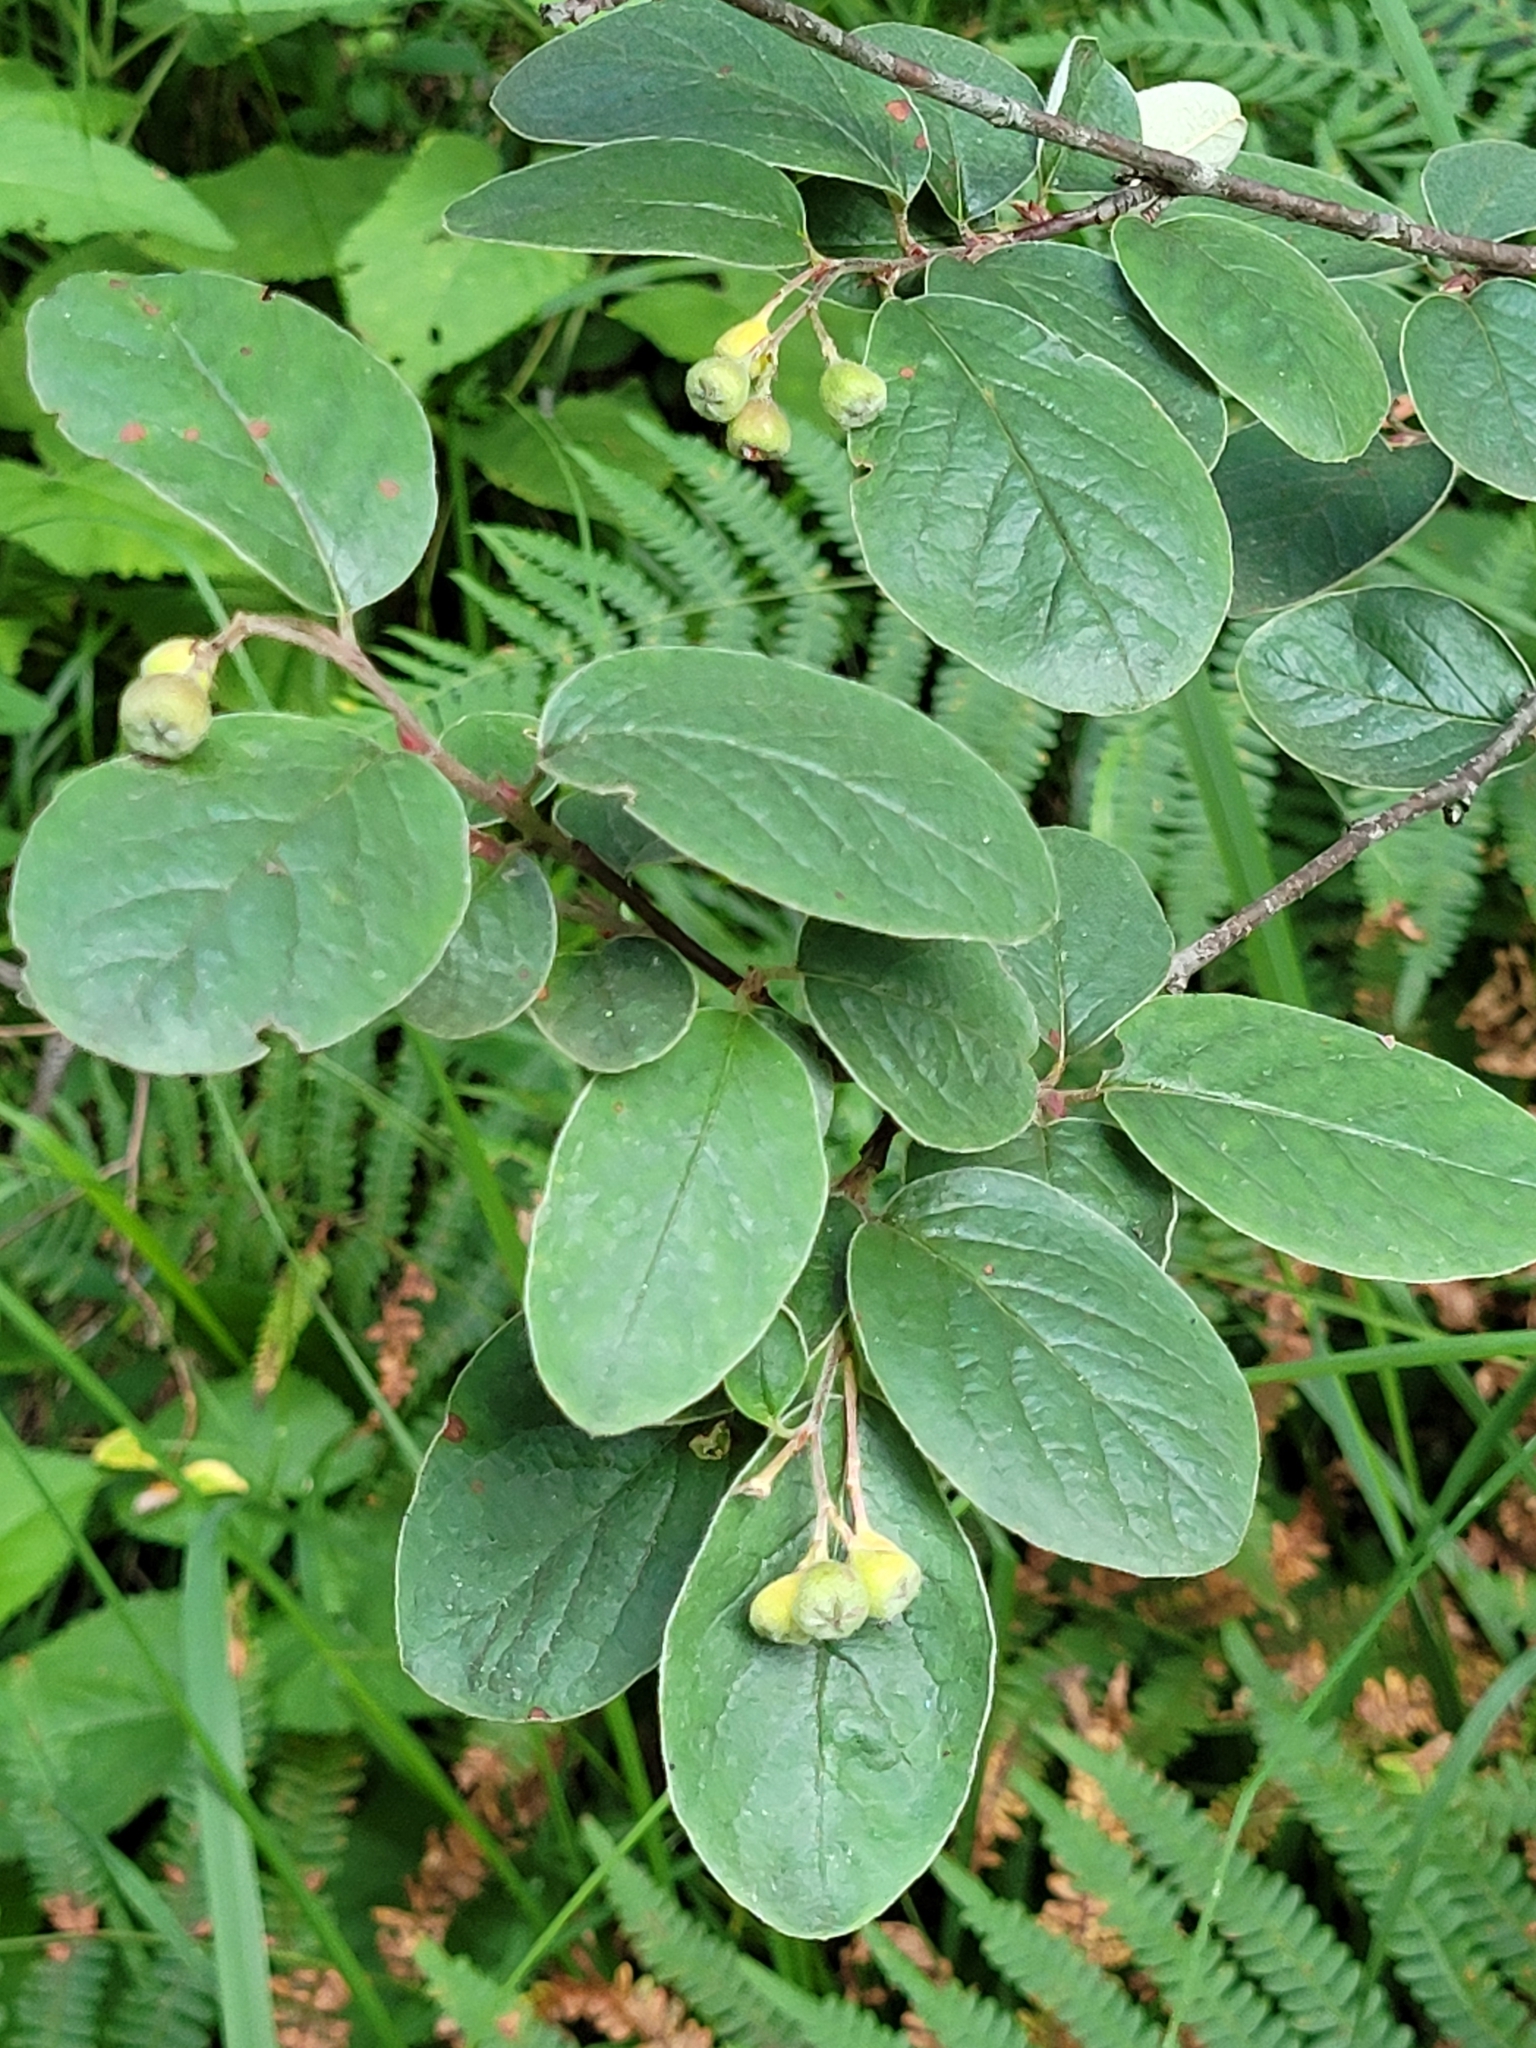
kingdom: Plantae
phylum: Tracheophyta
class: Magnoliopsida
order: Dipsacales
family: Viburnaceae
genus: Viburnum
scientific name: Viburnum lantana
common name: Wayfaring tree
